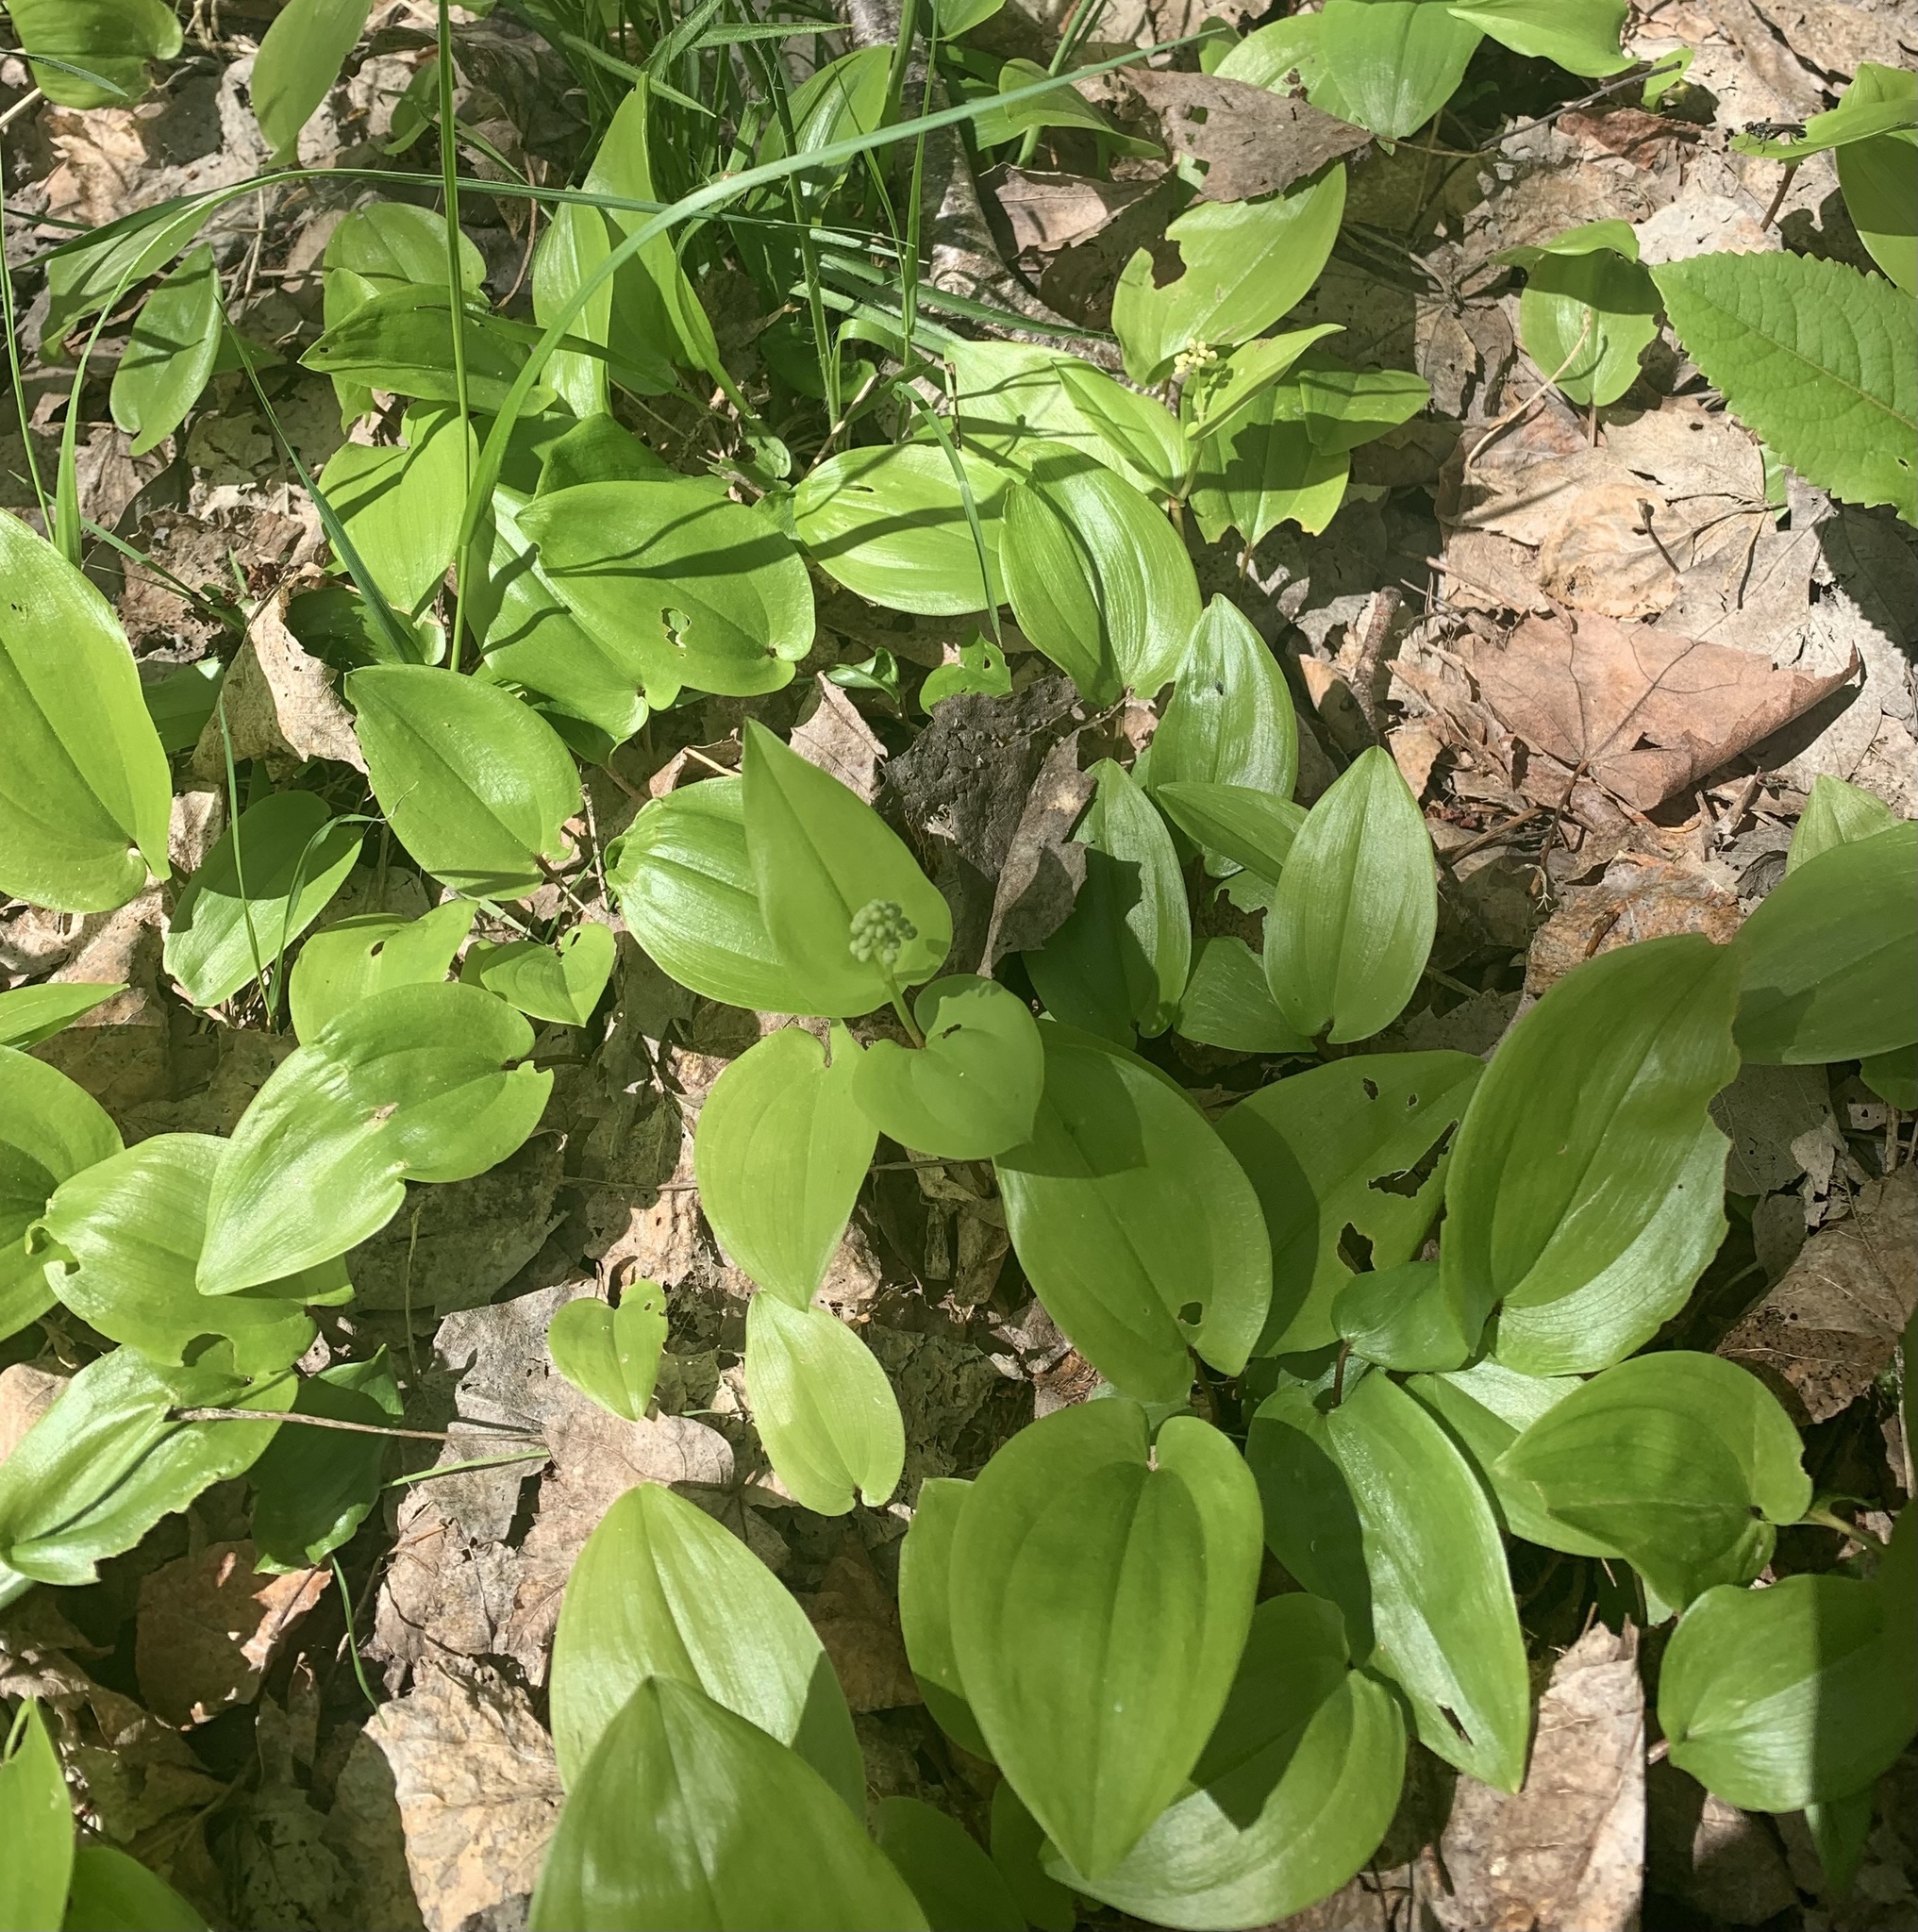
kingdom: Plantae
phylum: Tracheophyta
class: Liliopsida
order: Asparagales
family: Asparagaceae
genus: Maianthemum
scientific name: Maianthemum canadense
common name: False lily-of-the-valley
